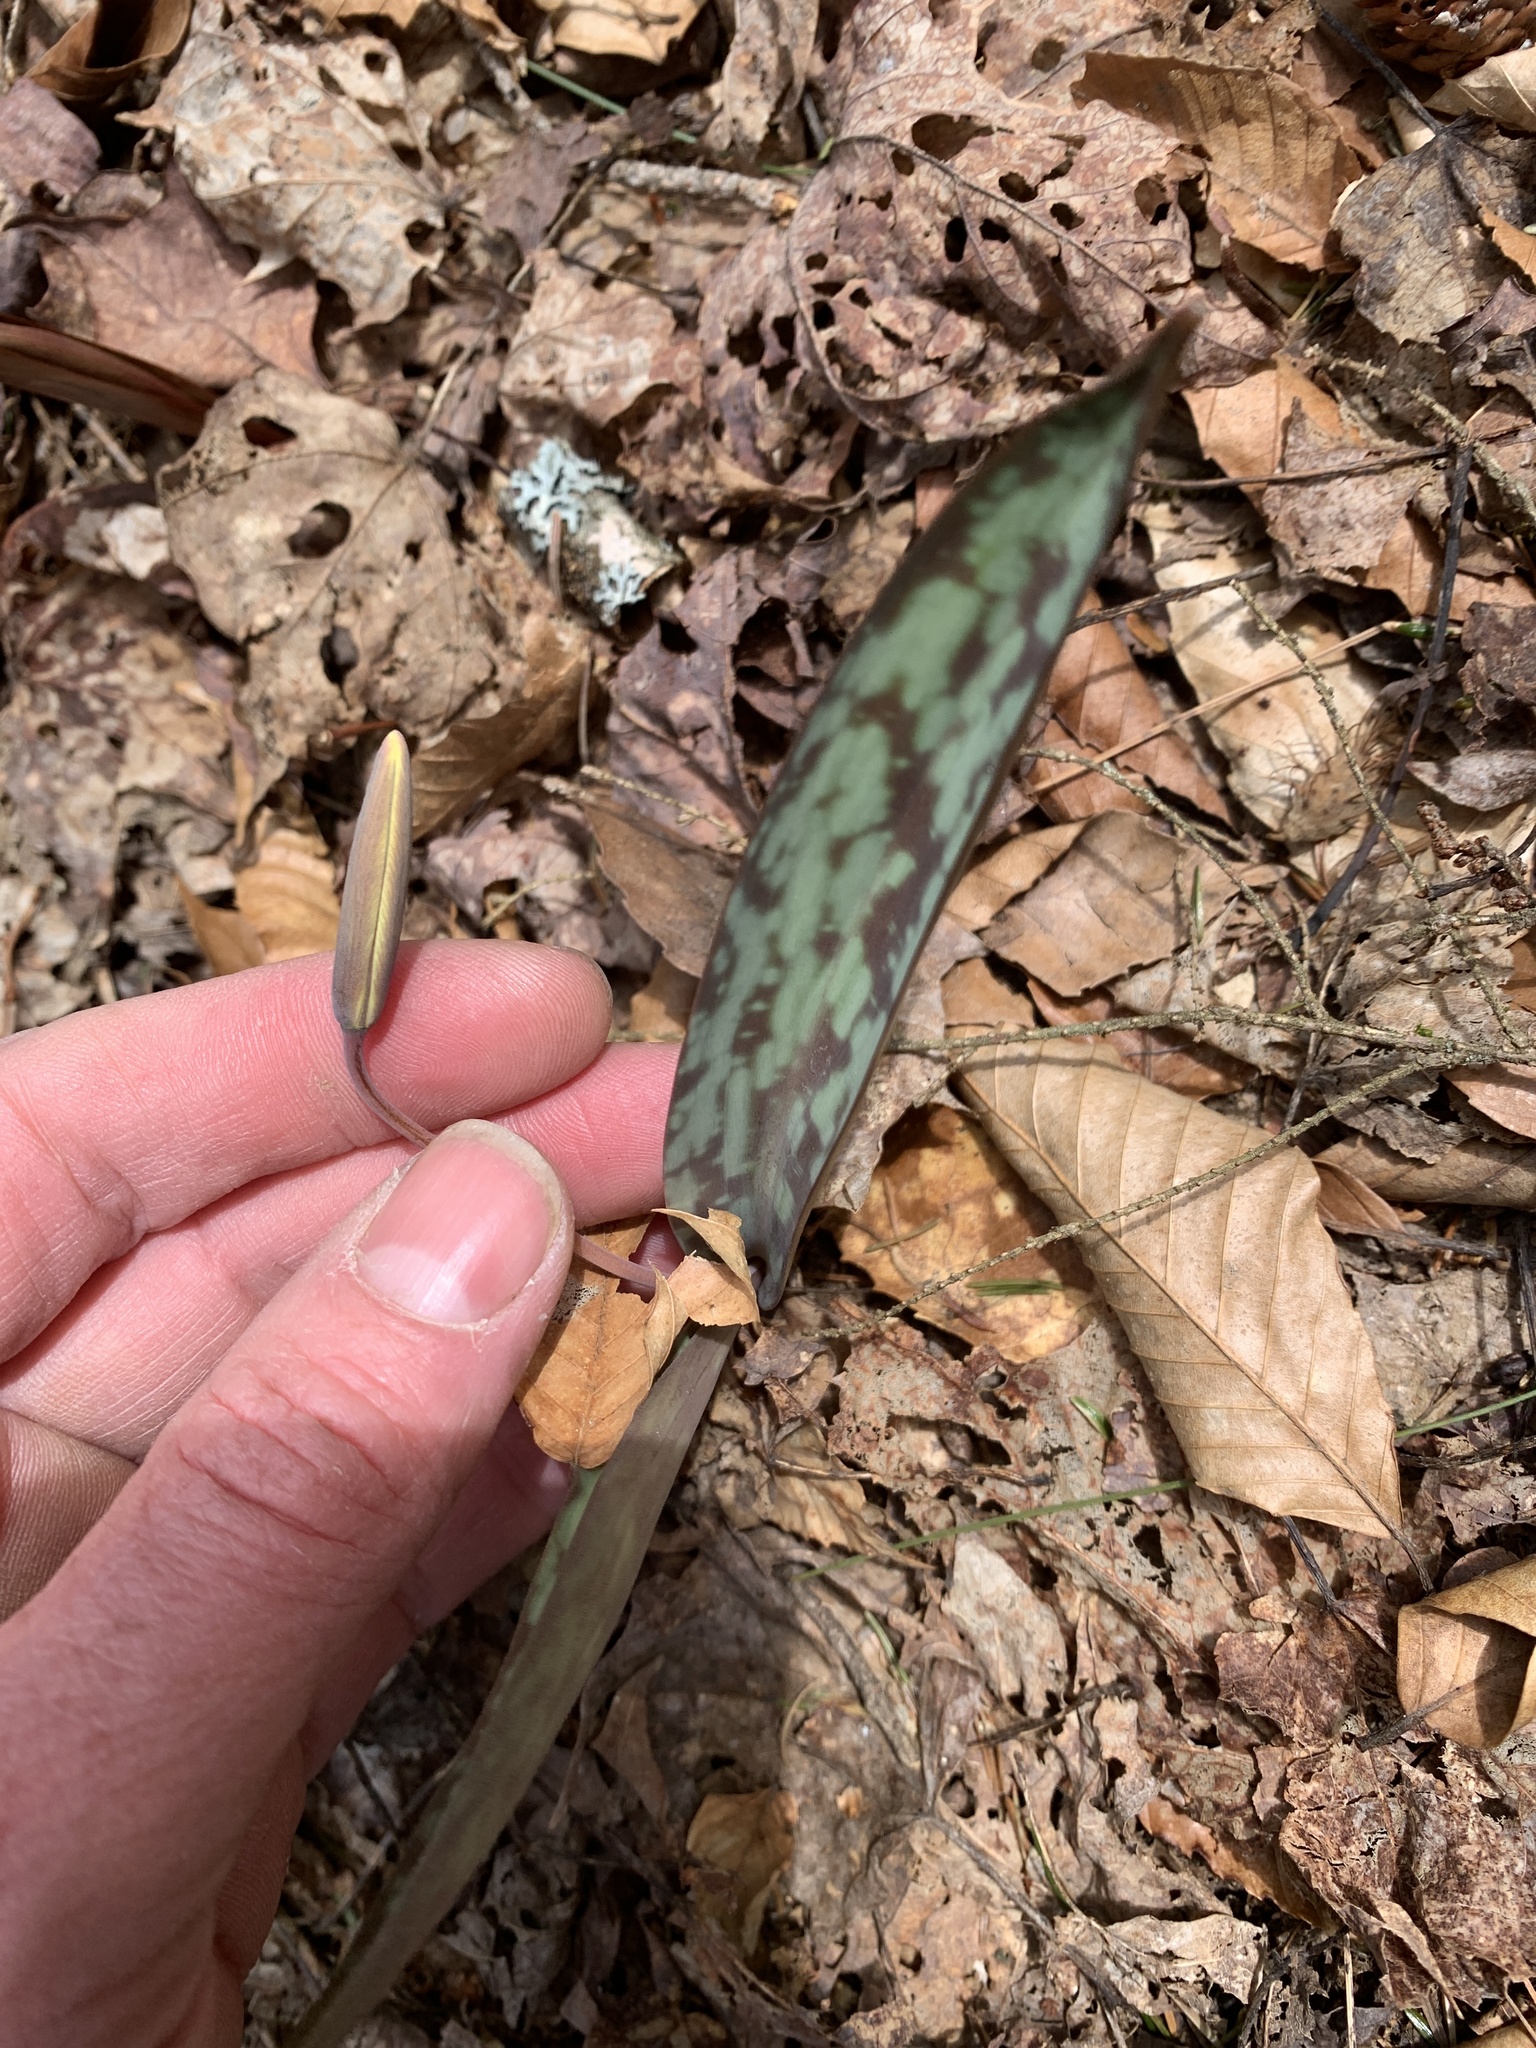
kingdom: Plantae
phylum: Tracheophyta
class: Liliopsida
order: Liliales
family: Liliaceae
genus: Erythronium
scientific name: Erythronium americanum
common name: Yellow adder's-tongue
